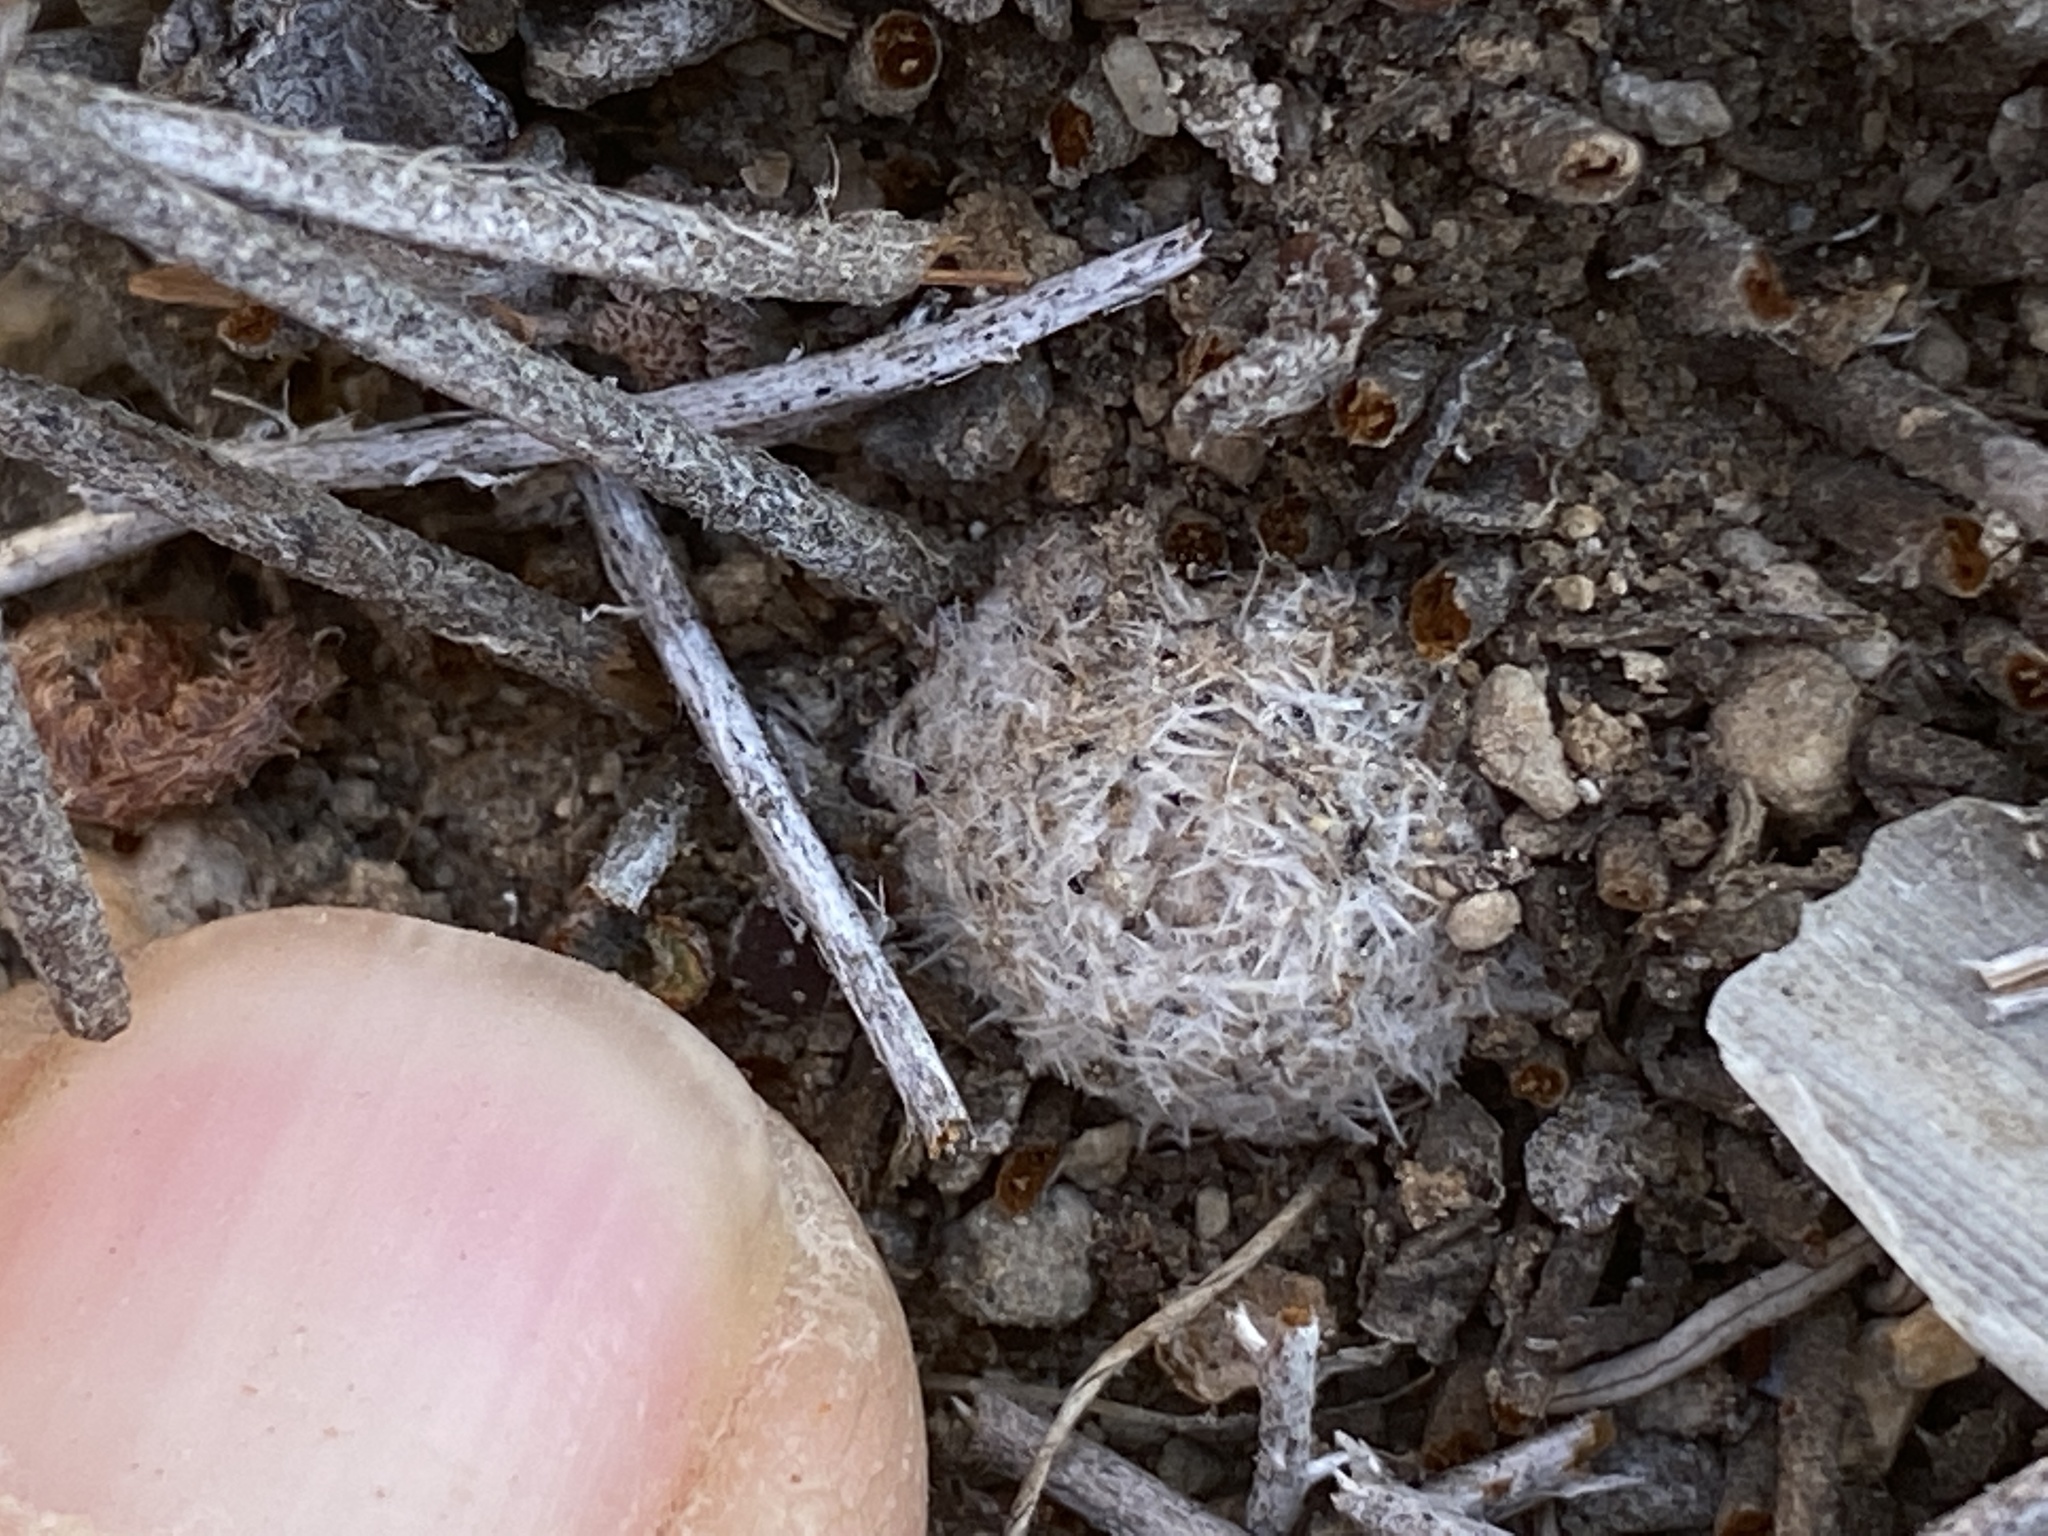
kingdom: Plantae
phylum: Tracheophyta
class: Magnoliopsida
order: Caryophyllales
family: Cactaceae
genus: Epithelantha
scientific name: Epithelantha micromeris
